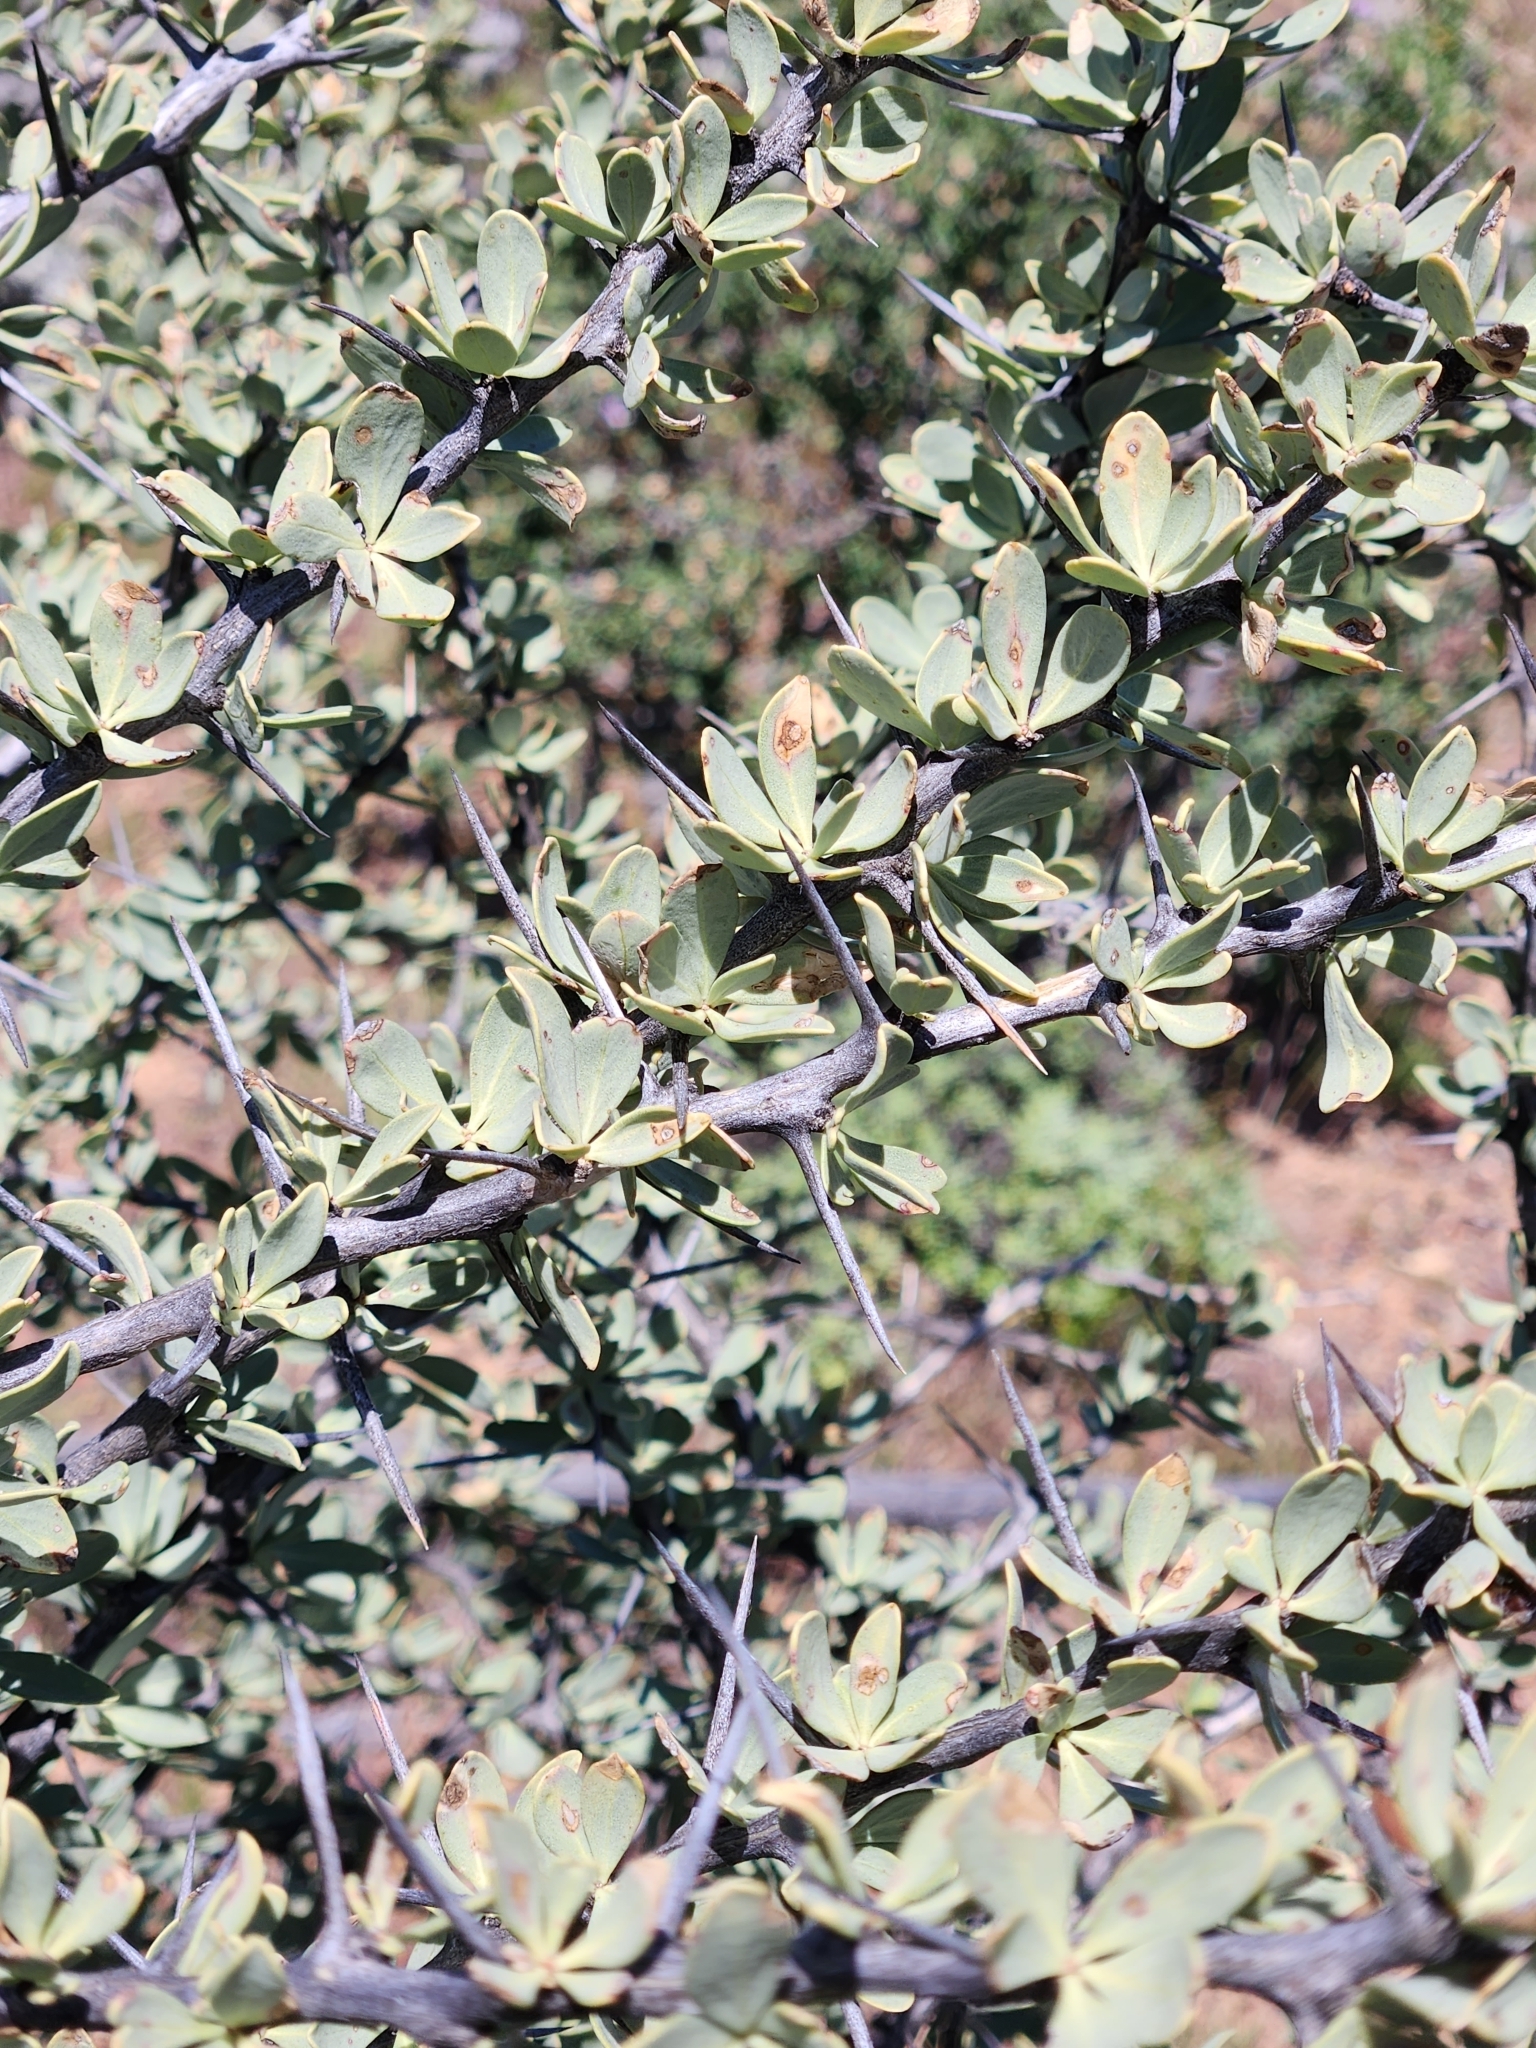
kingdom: Plantae
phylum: Tracheophyta
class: Magnoliopsida
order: Ericales
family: Fouquieriaceae
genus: Fouquieria
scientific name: Fouquieria columnaris
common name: Boojumtree
